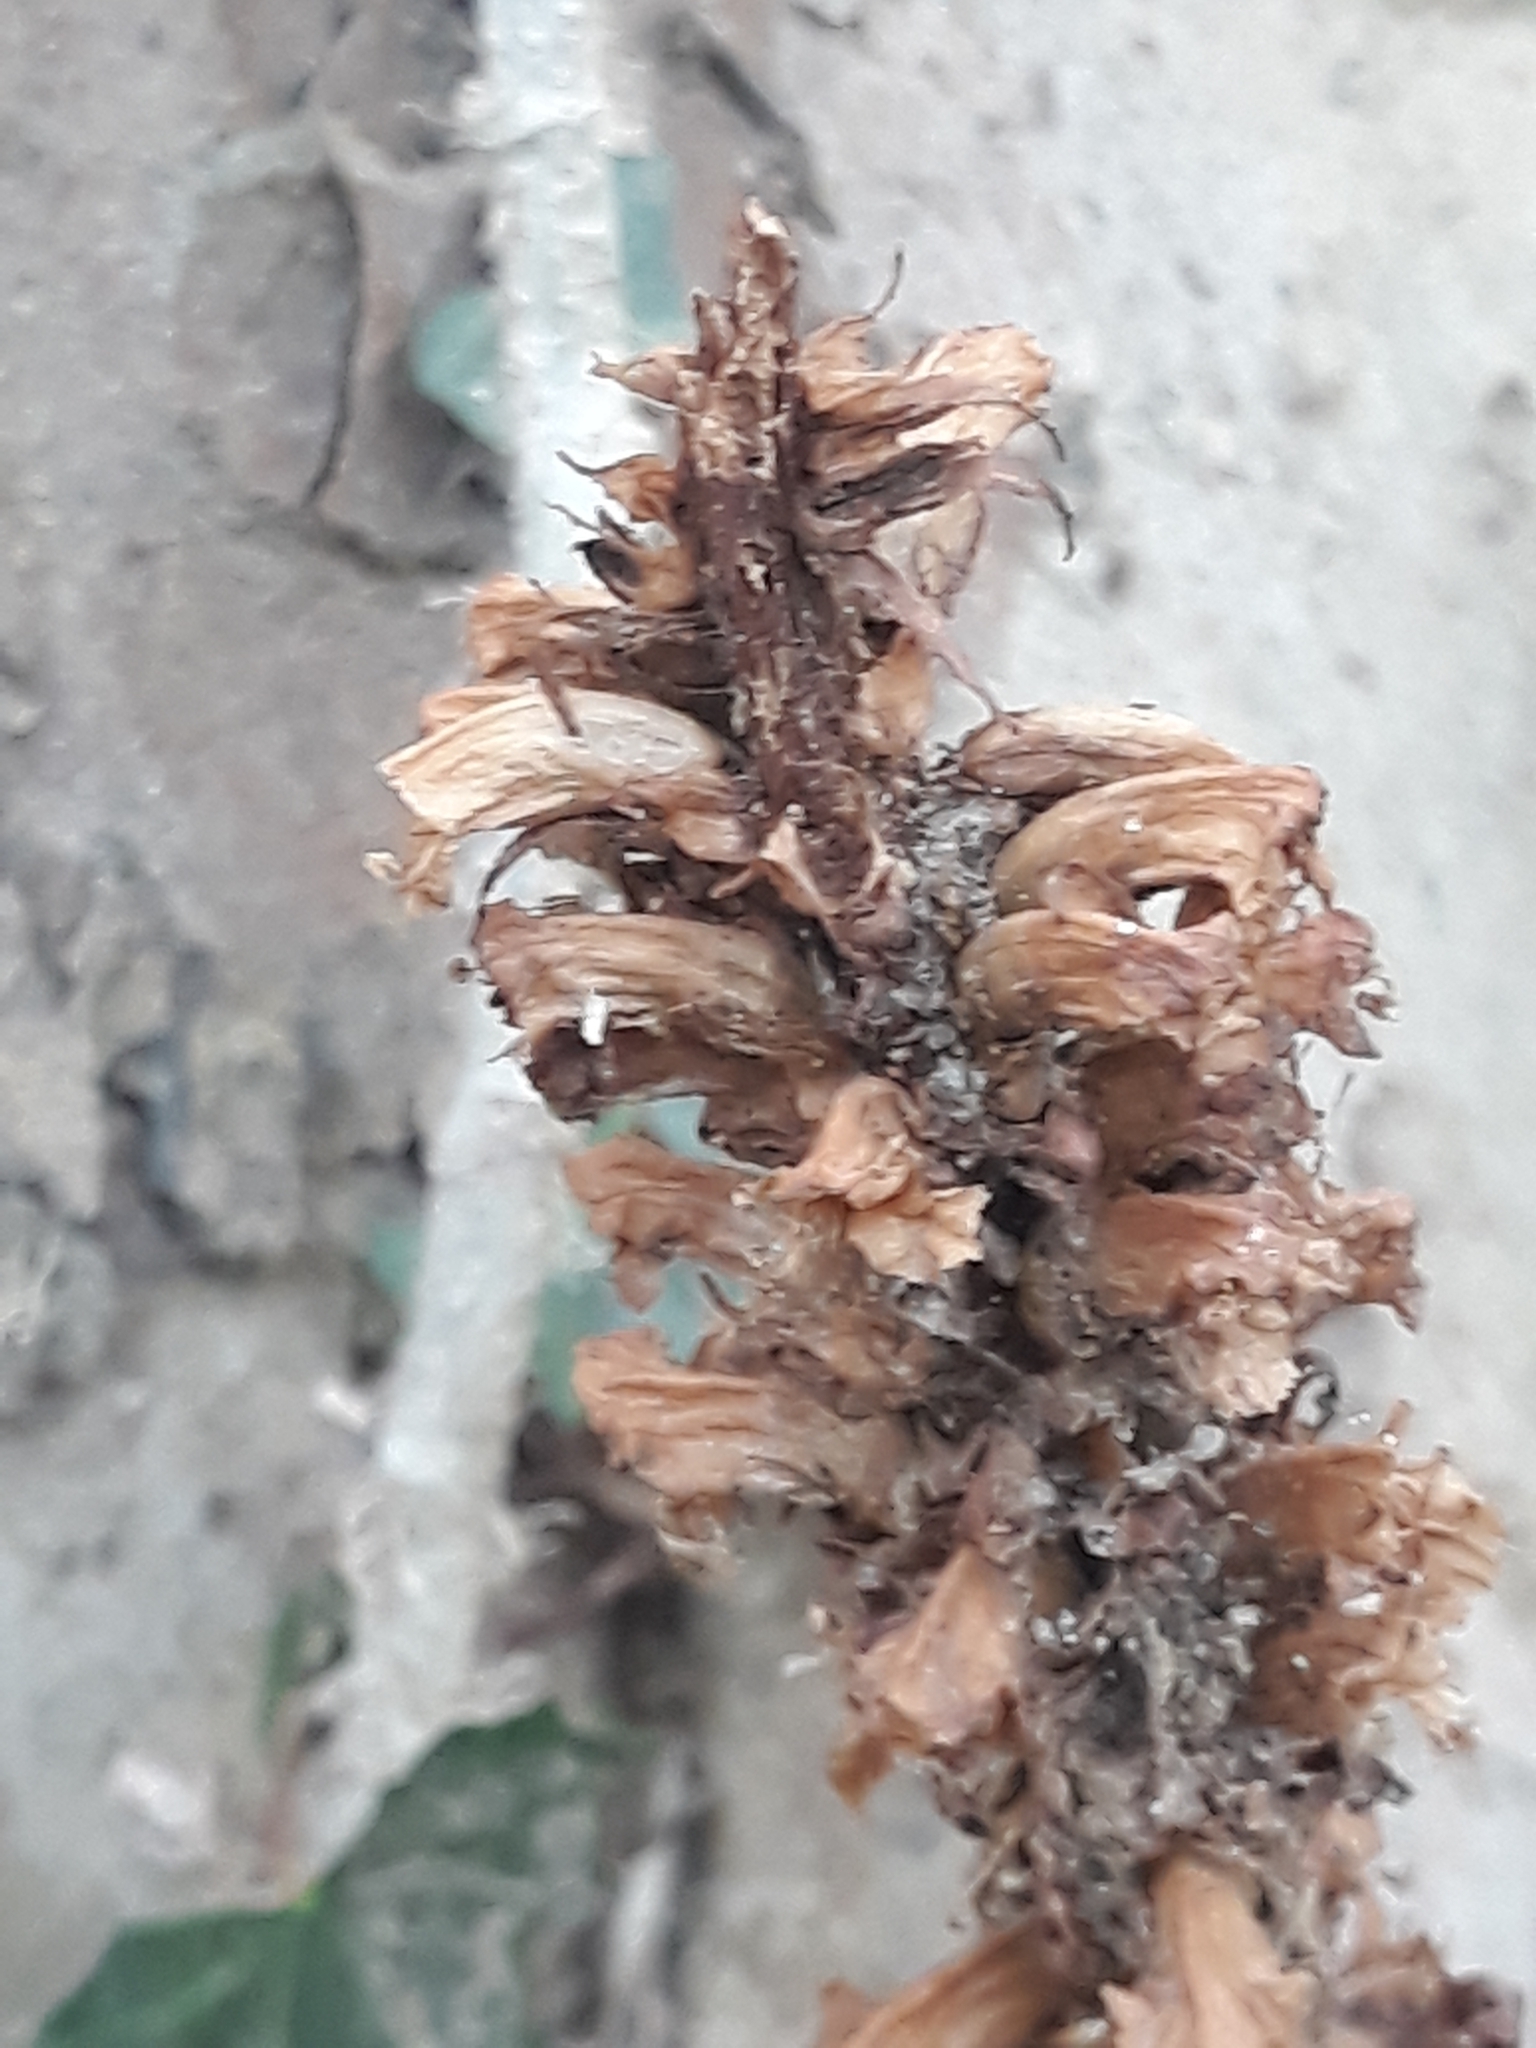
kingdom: Plantae
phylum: Tracheophyta
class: Magnoliopsida
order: Lamiales
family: Orobanchaceae
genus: Orobanche
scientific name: Orobanche hederae
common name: Ivy broomrape
